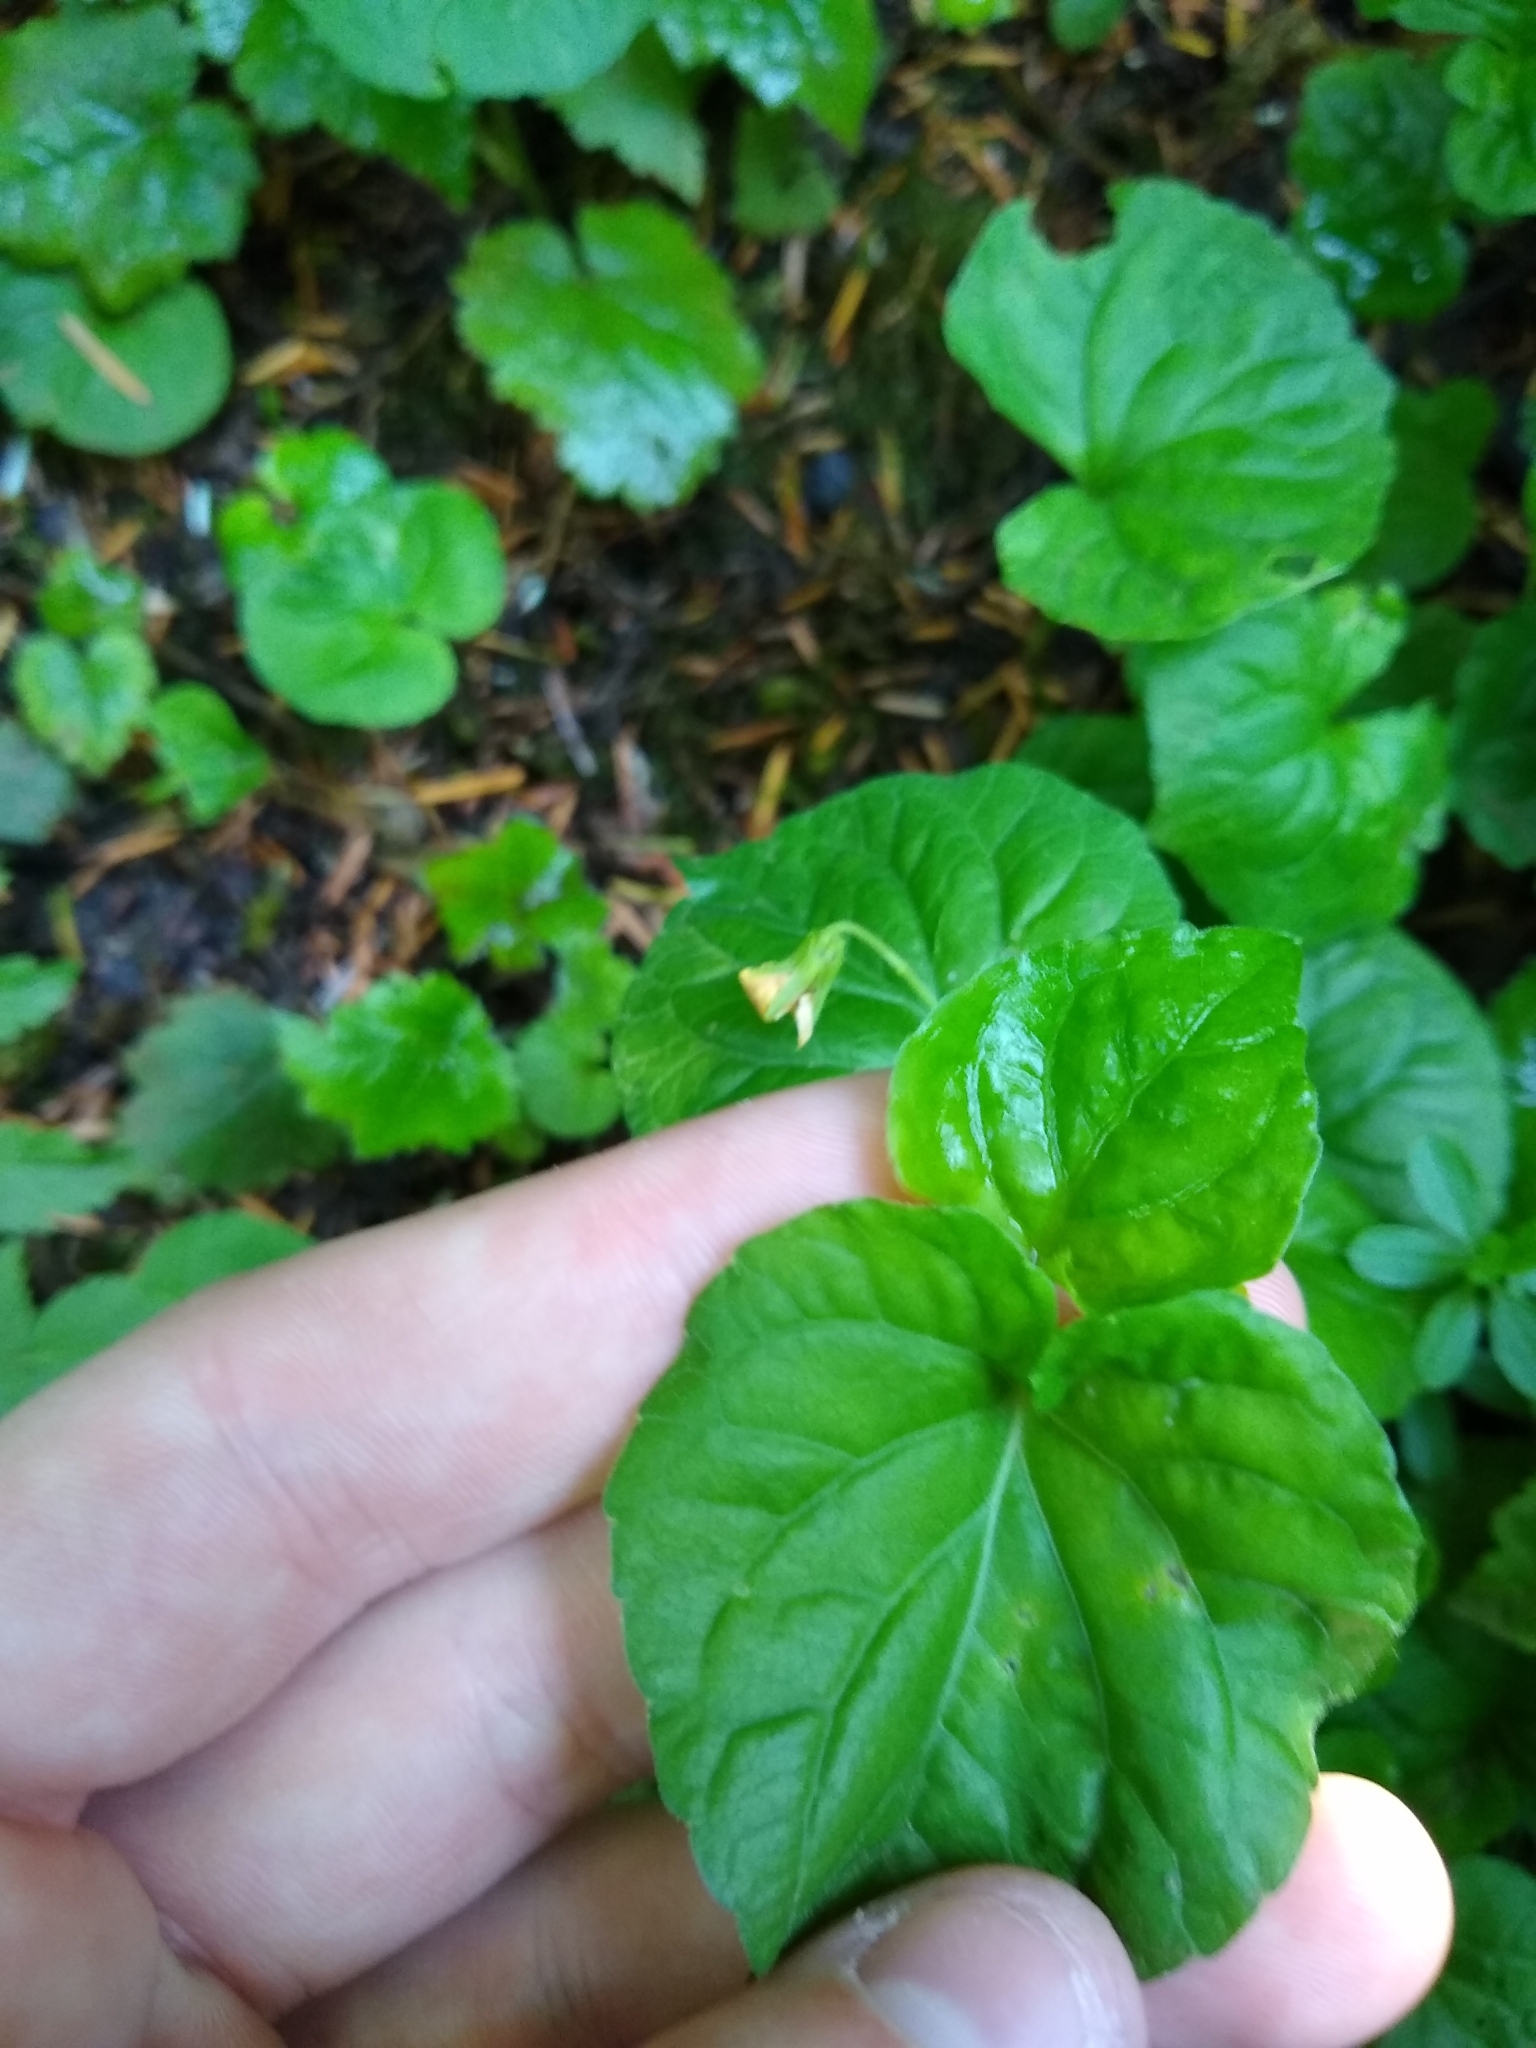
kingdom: Plantae
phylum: Tracheophyta
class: Magnoliopsida
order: Malpighiales
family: Violaceae
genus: Viola
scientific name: Viola glabella
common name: Stream violet
